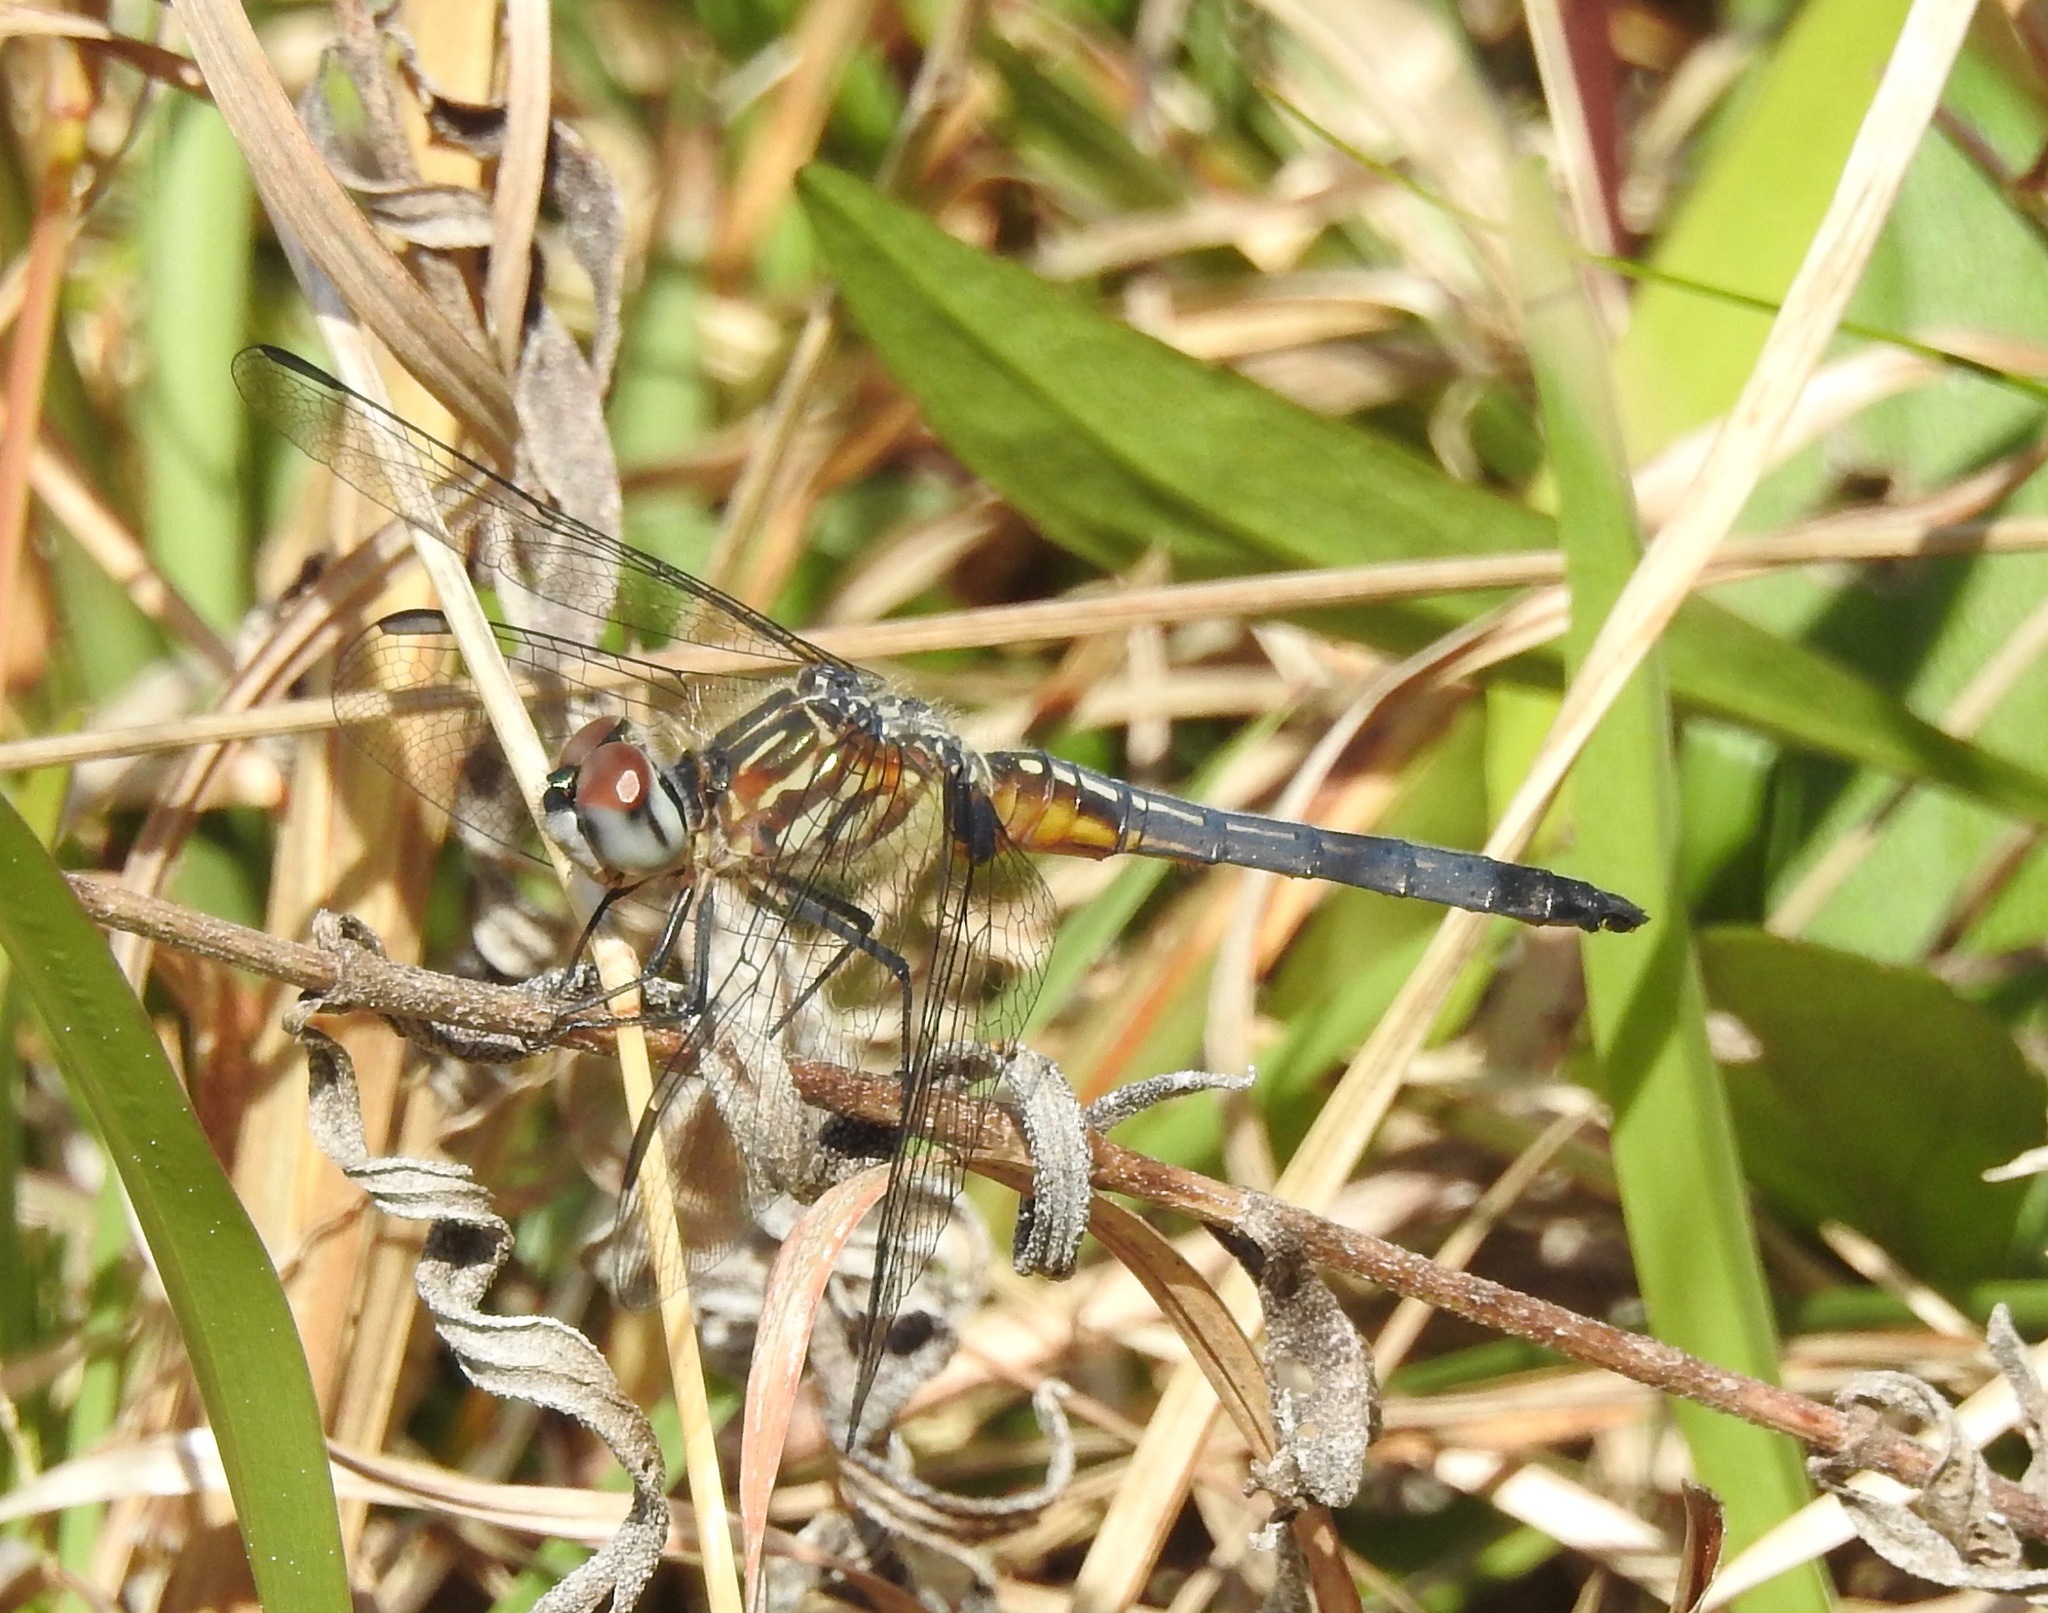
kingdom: Animalia
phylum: Arthropoda
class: Insecta
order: Odonata
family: Libellulidae
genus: Pachydiplax
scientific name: Pachydiplax longipennis
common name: Blue dasher
